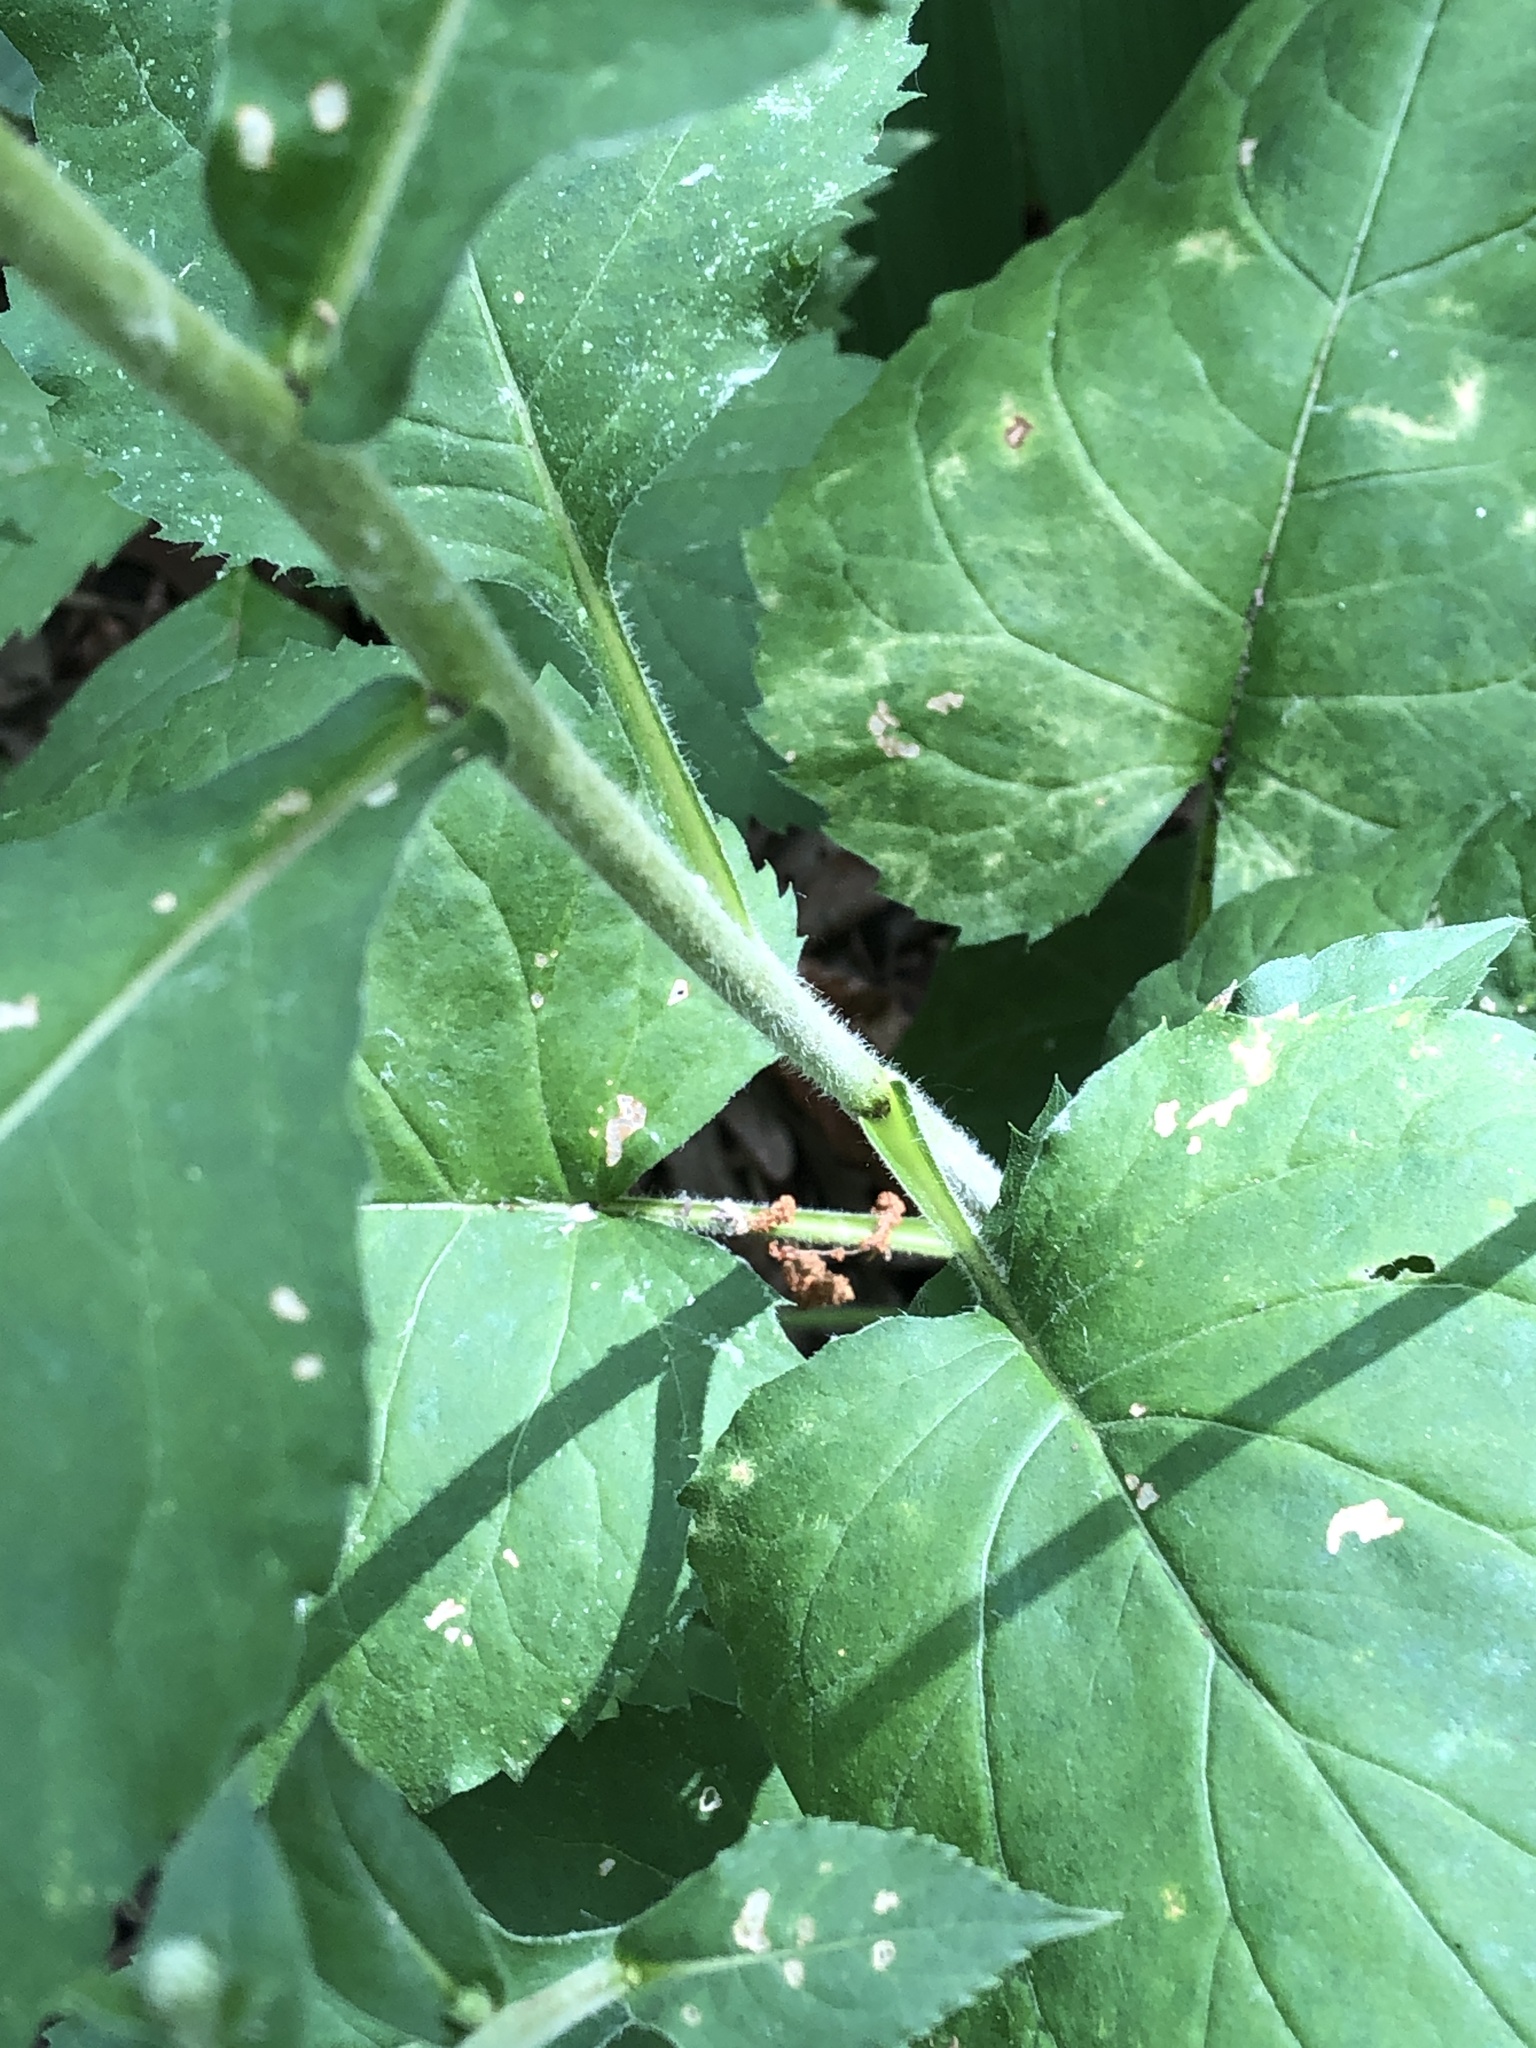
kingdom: Plantae
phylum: Tracheophyta
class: Magnoliopsida
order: Asterales
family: Asteraceae
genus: Eurybia
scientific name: Eurybia macrophylla
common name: Big-leaved aster
